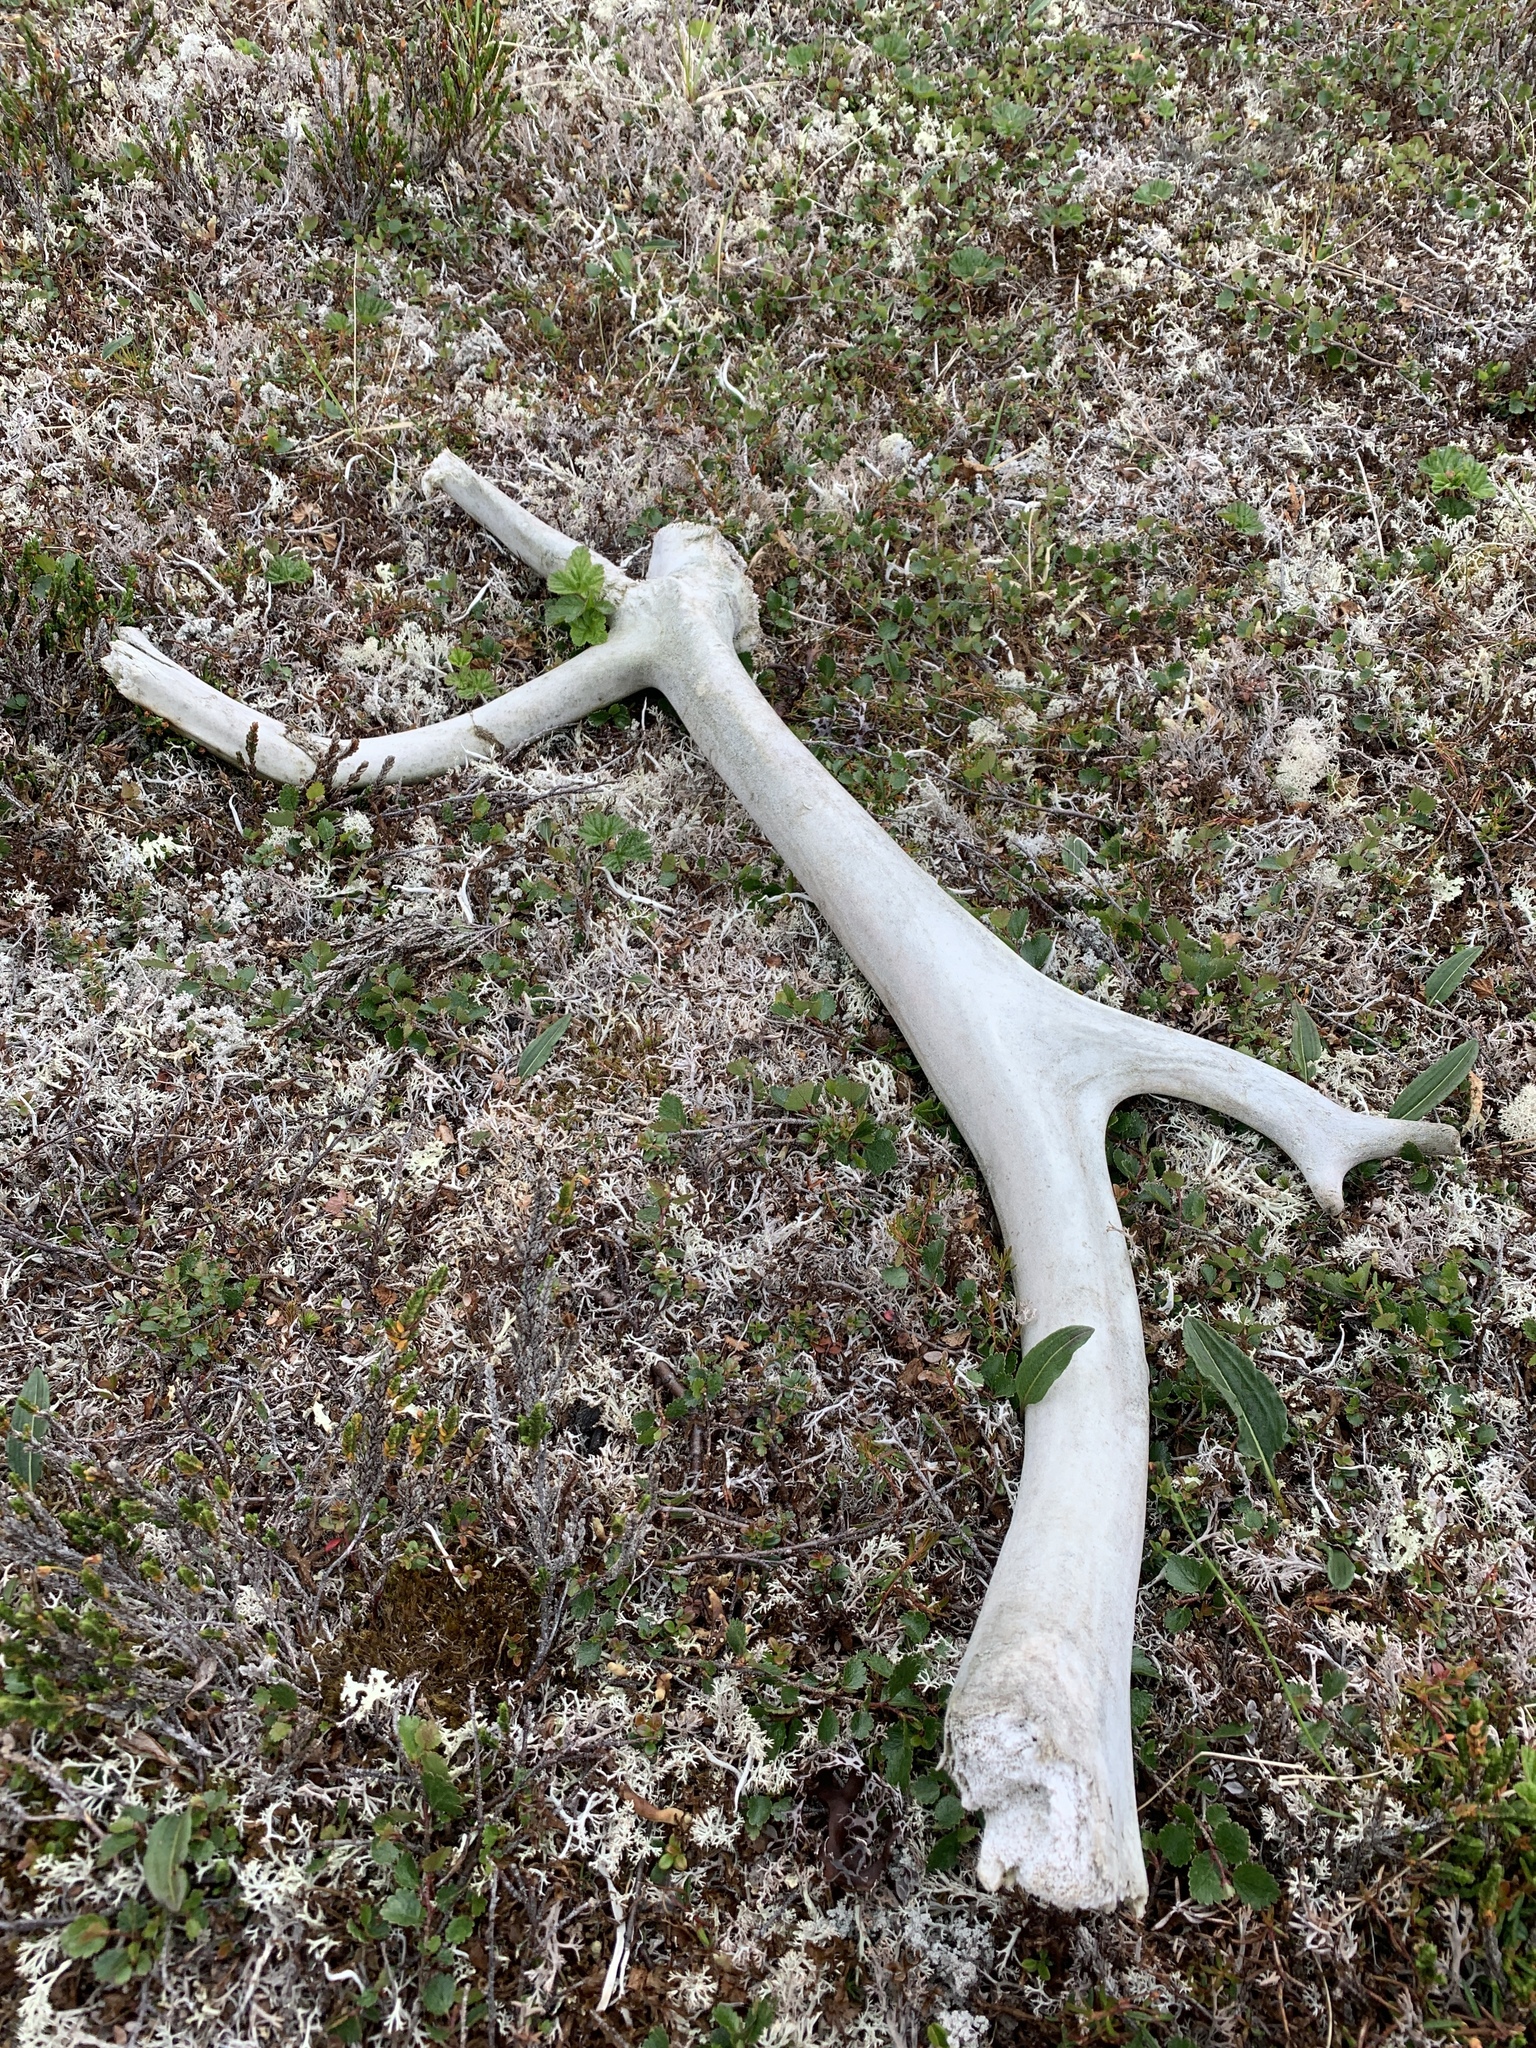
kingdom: Animalia
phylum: Chordata
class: Mammalia
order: Artiodactyla
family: Cervidae
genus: Rangifer
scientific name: Rangifer tarandus
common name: Reindeer
